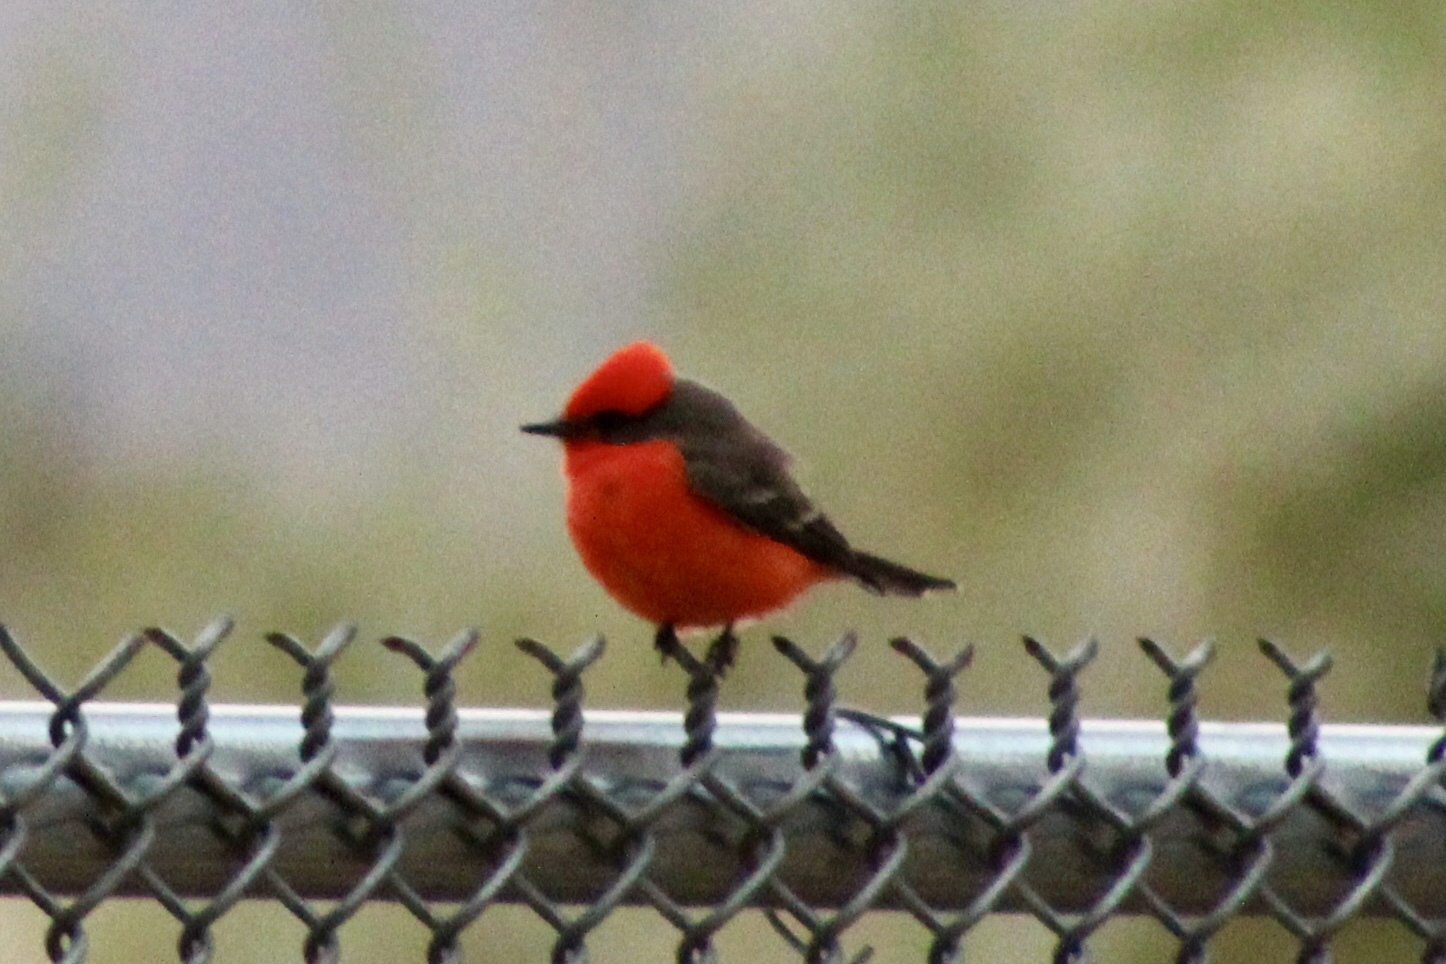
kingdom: Animalia
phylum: Chordata
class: Aves
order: Passeriformes
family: Tyrannidae
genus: Pyrocephalus
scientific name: Pyrocephalus rubinus
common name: Vermilion flycatcher
